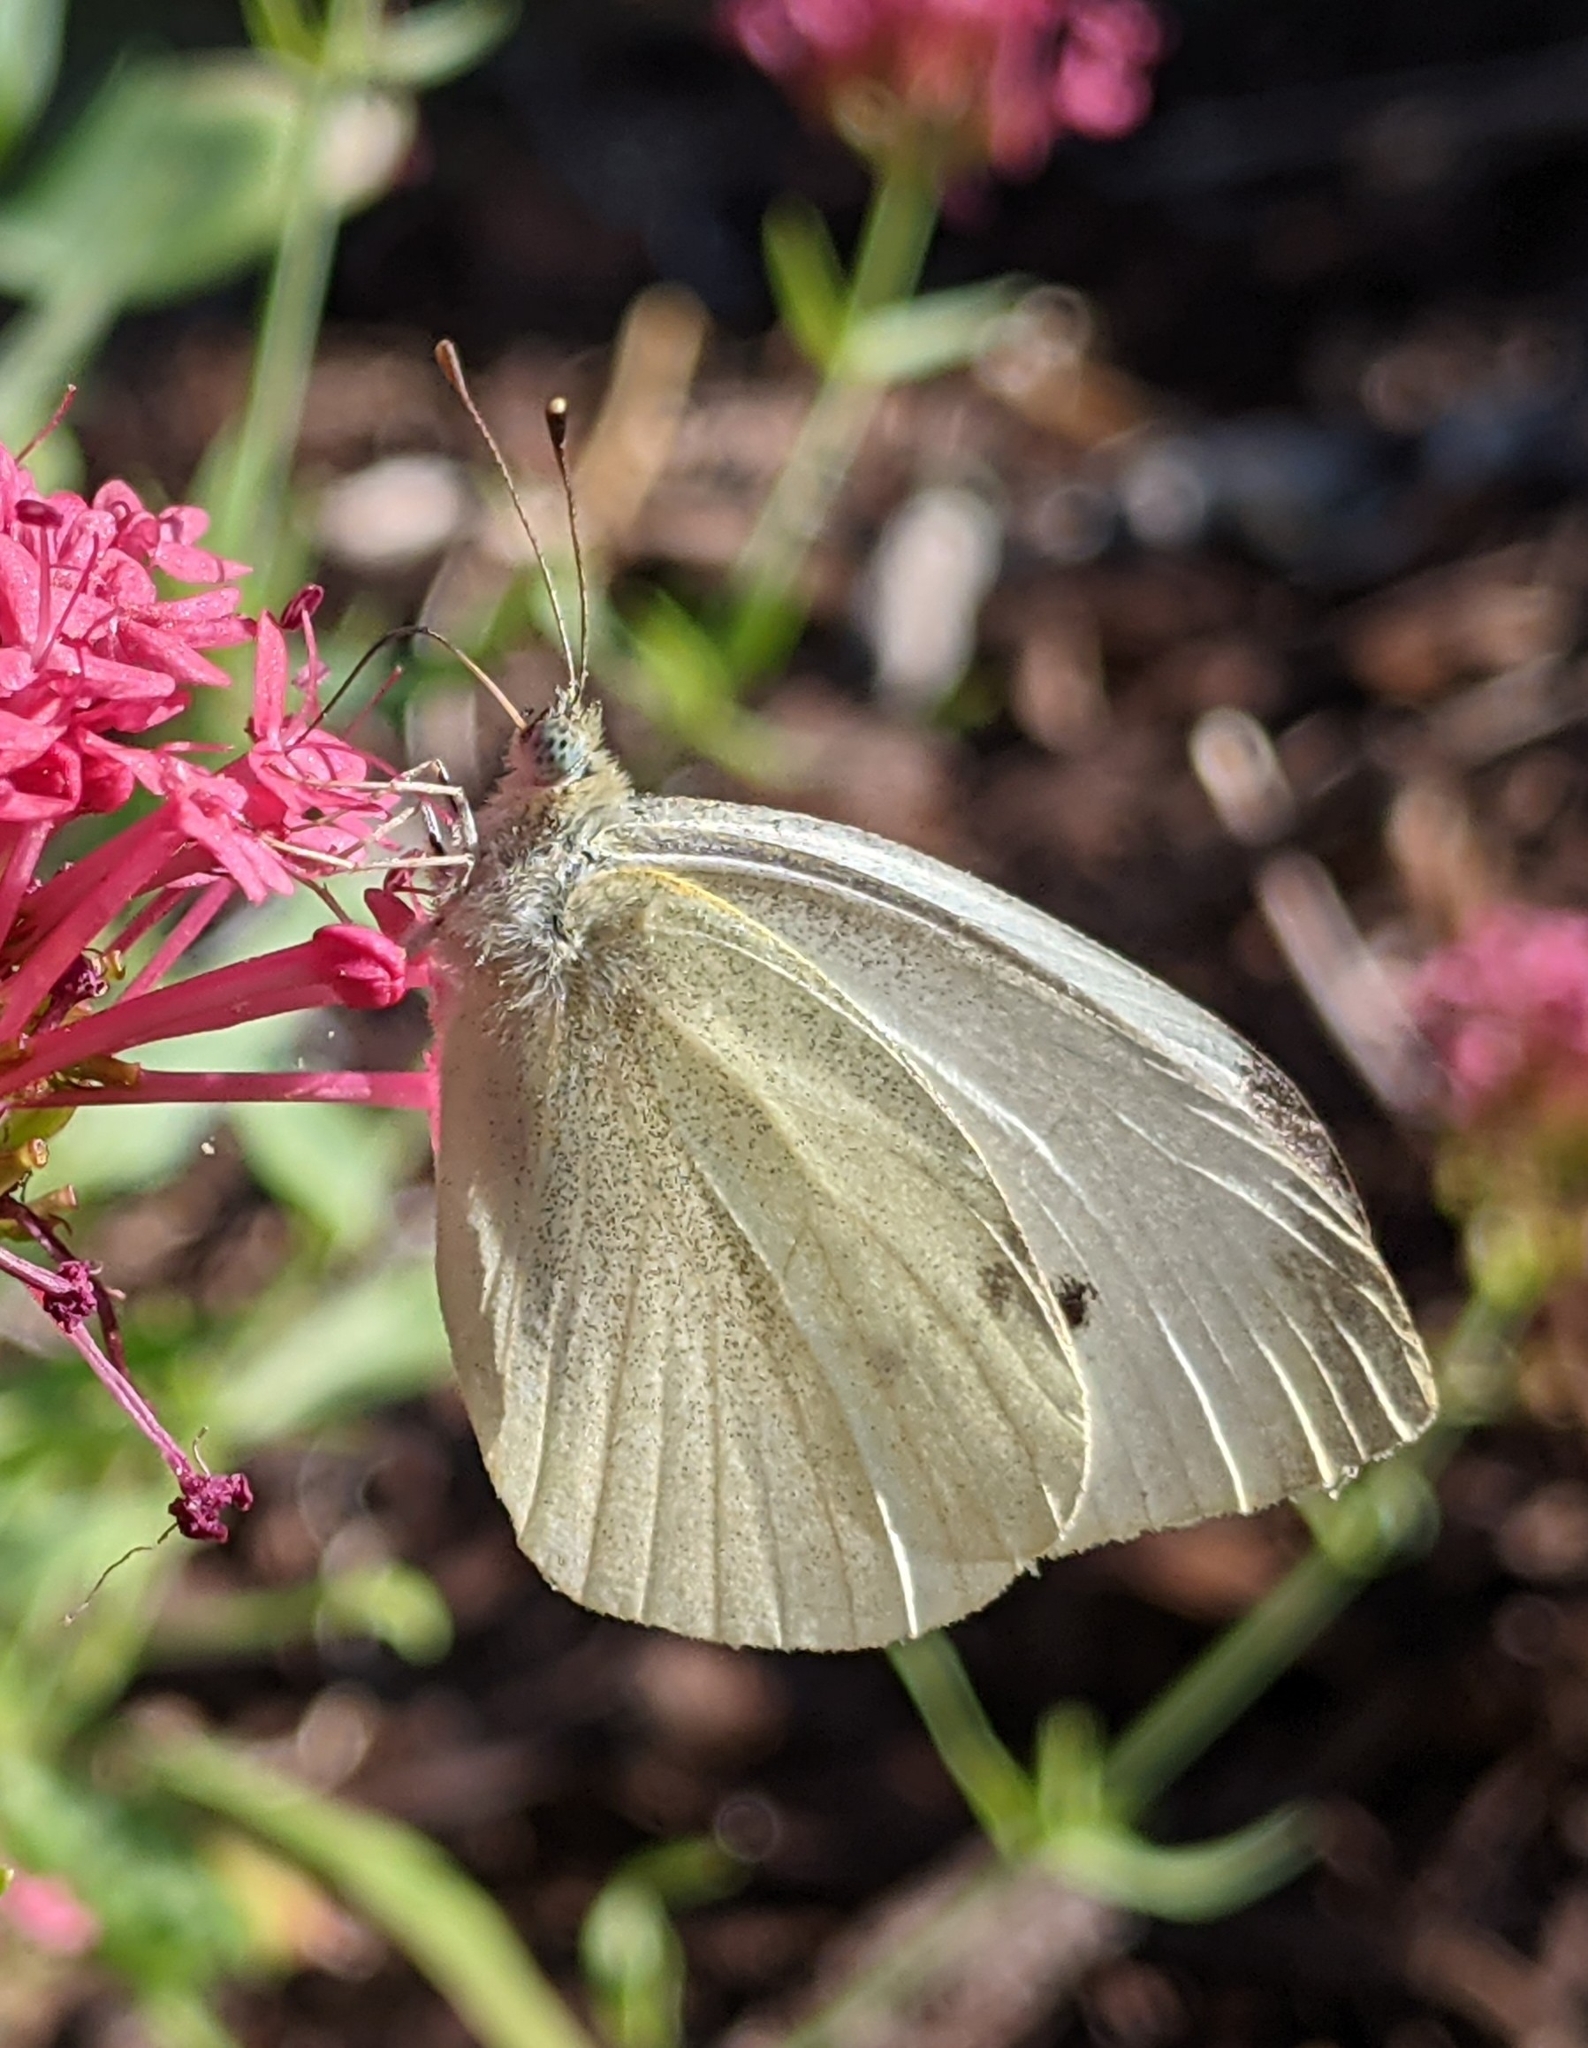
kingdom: Animalia
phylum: Arthropoda
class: Insecta
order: Lepidoptera
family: Pieridae
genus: Pieris
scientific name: Pieris rapae
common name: Small white
